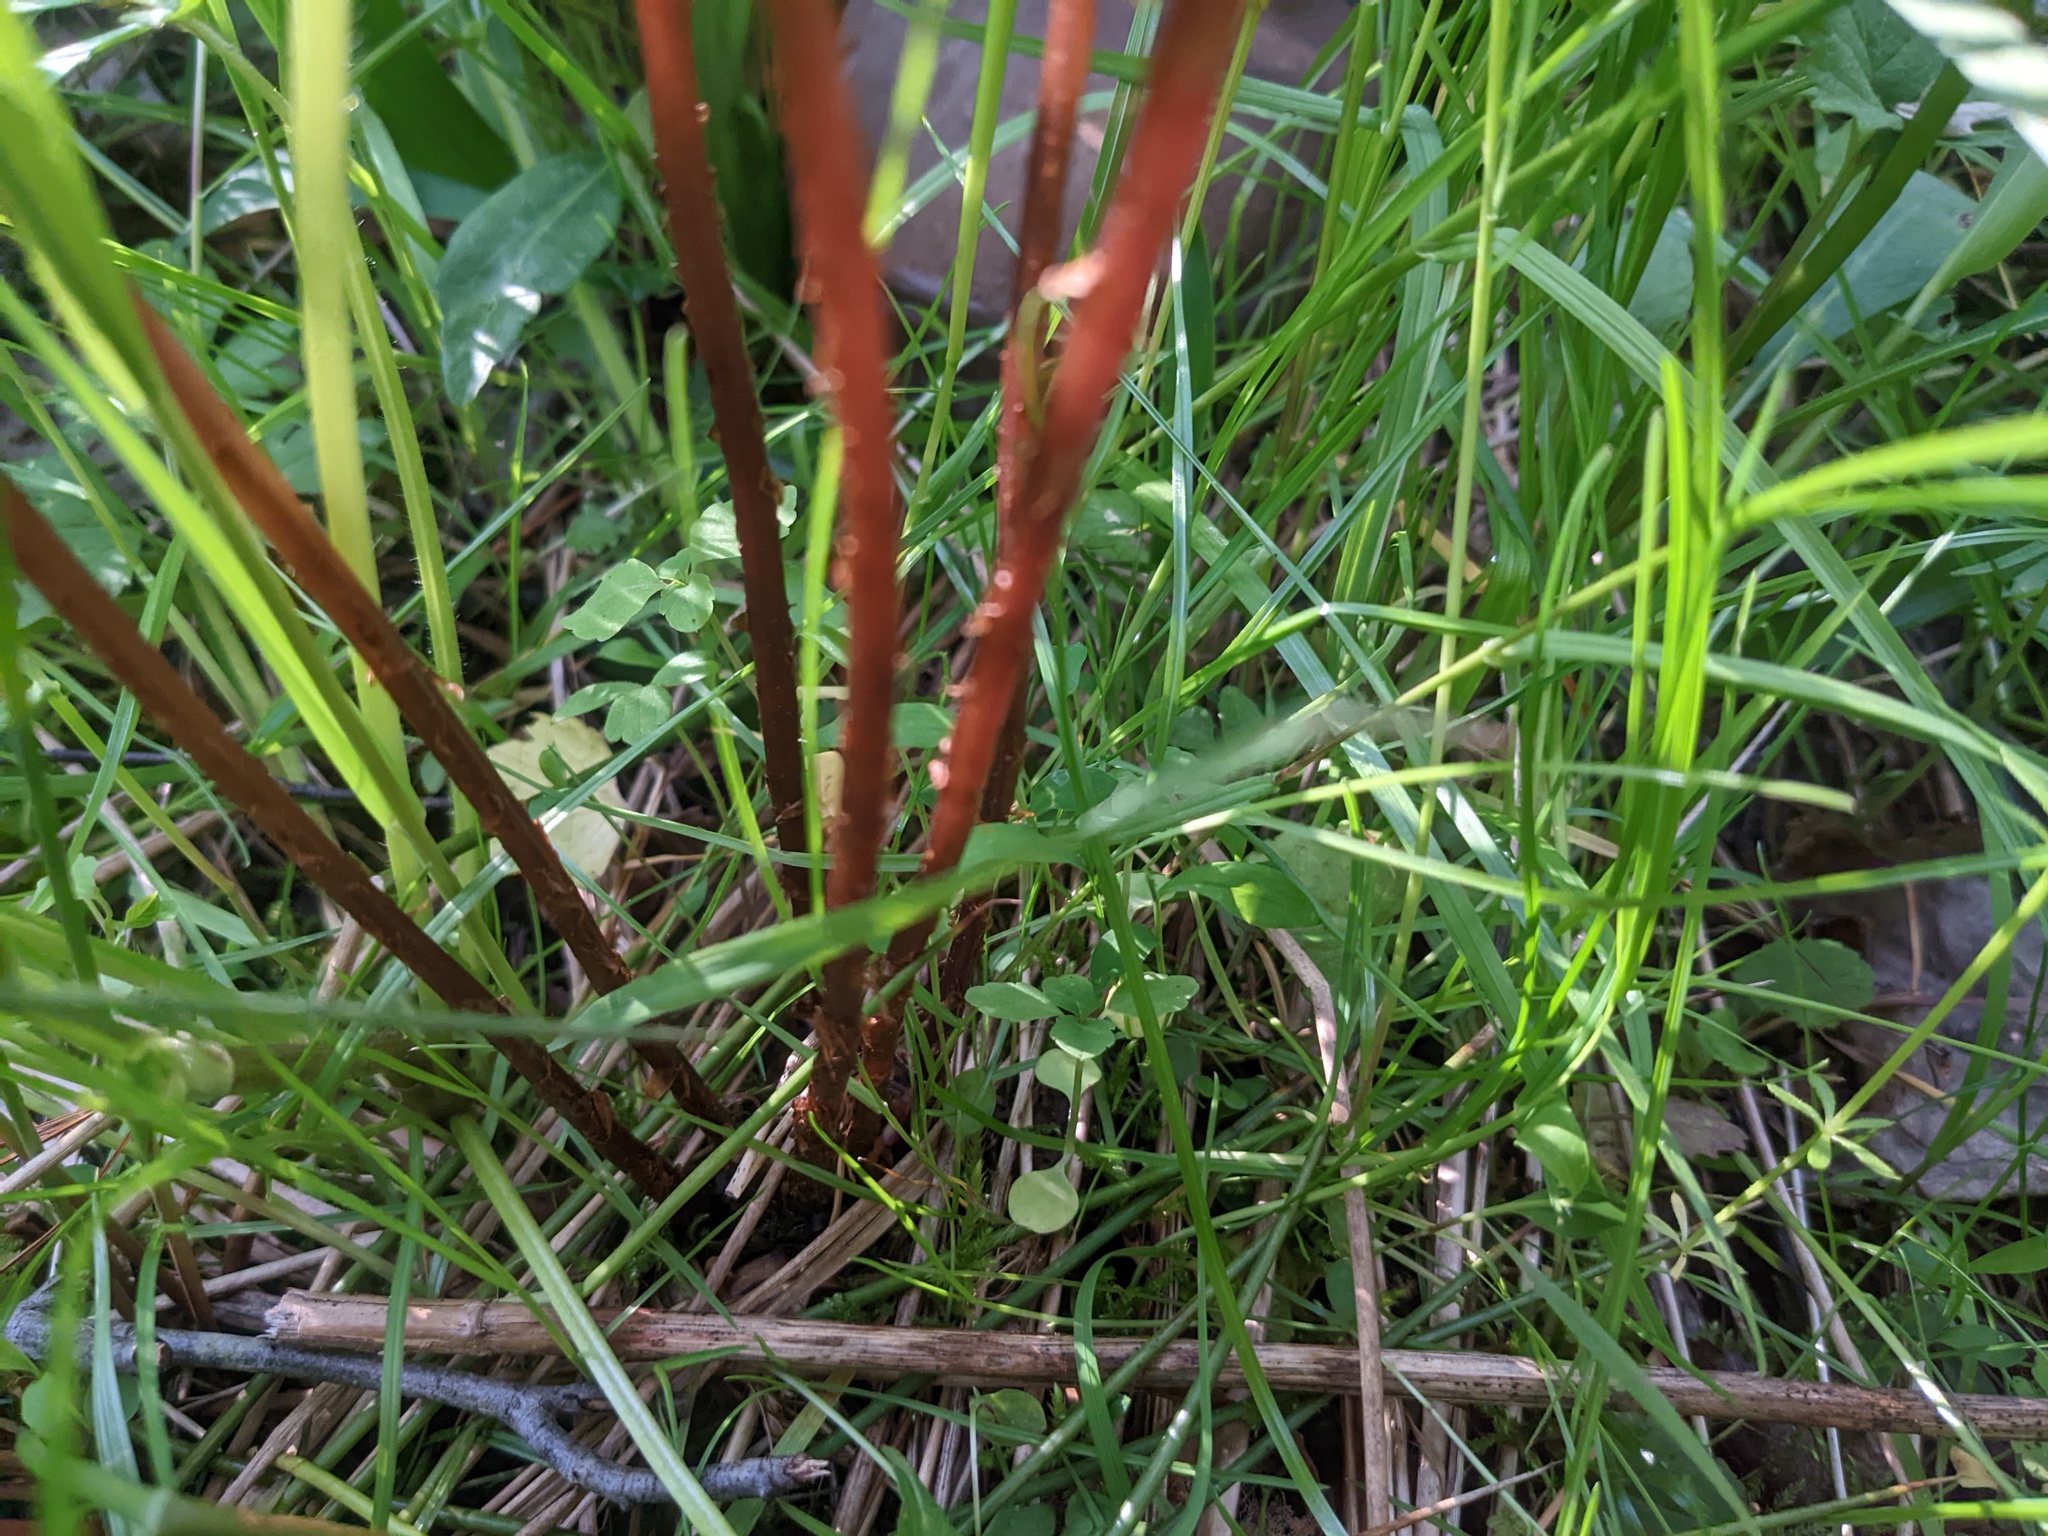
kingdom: Plantae
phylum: Tracheophyta
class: Polypodiopsida
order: Polypodiales
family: Athyriaceae
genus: Athyrium
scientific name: Athyrium asplenioides
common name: Southern lady fern
